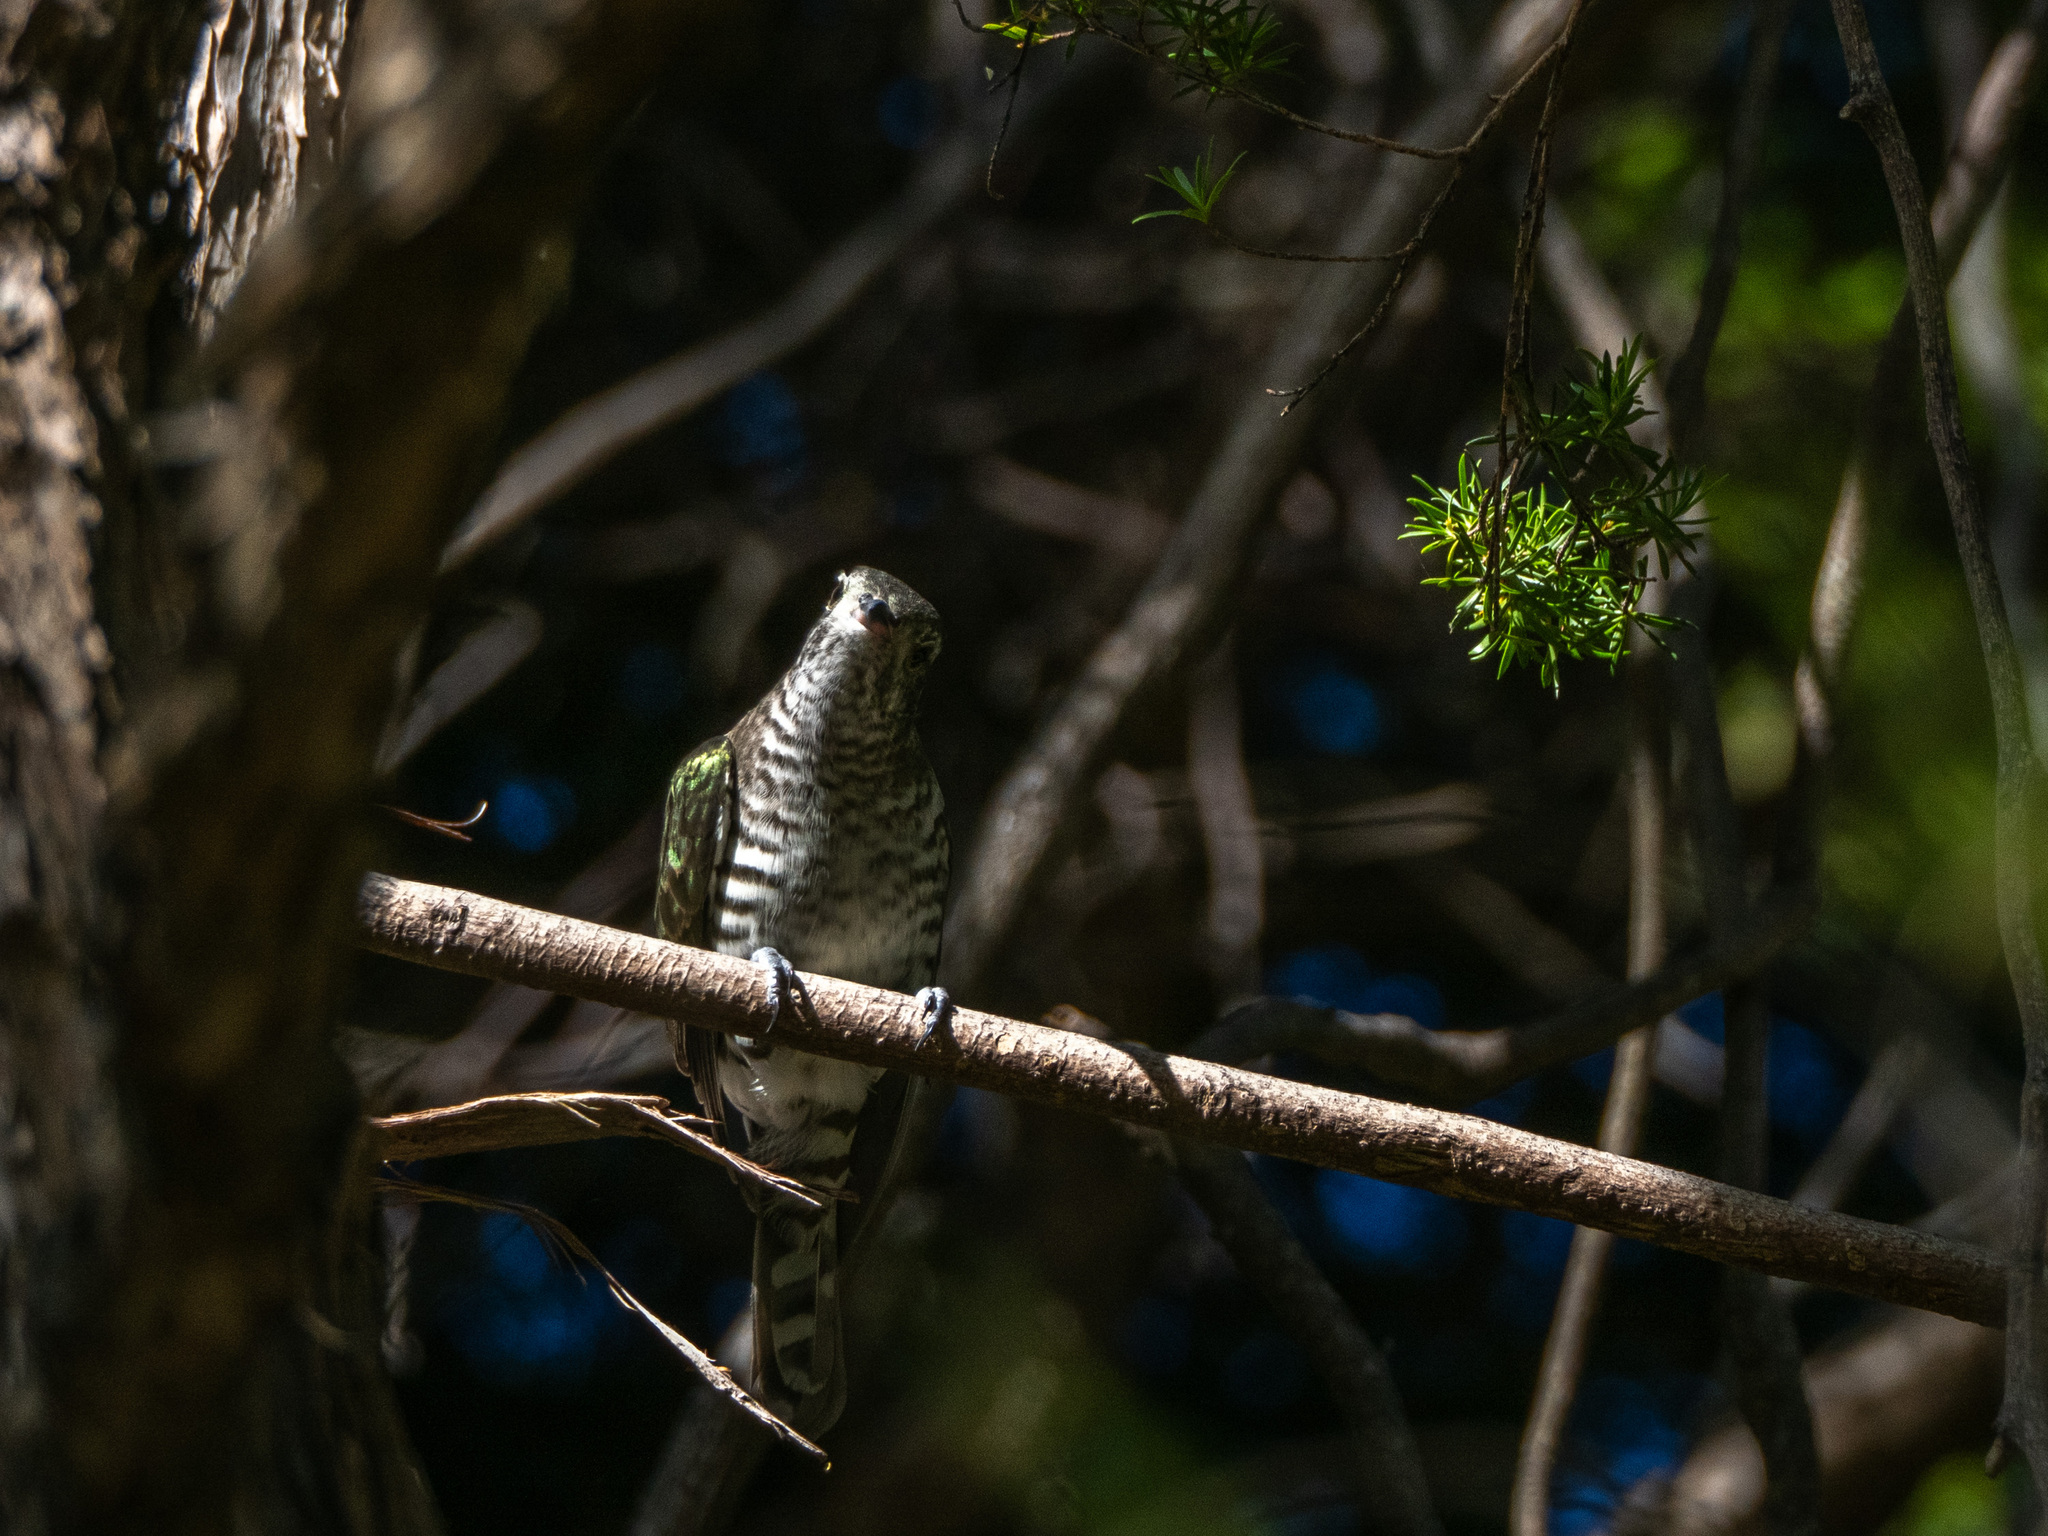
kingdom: Animalia
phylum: Chordata
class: Aves
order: Cuculiformes
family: Cuculidae
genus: Chrysococcyx
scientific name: Chrysococcyx lucidus
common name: Shining bronze cuckoo
